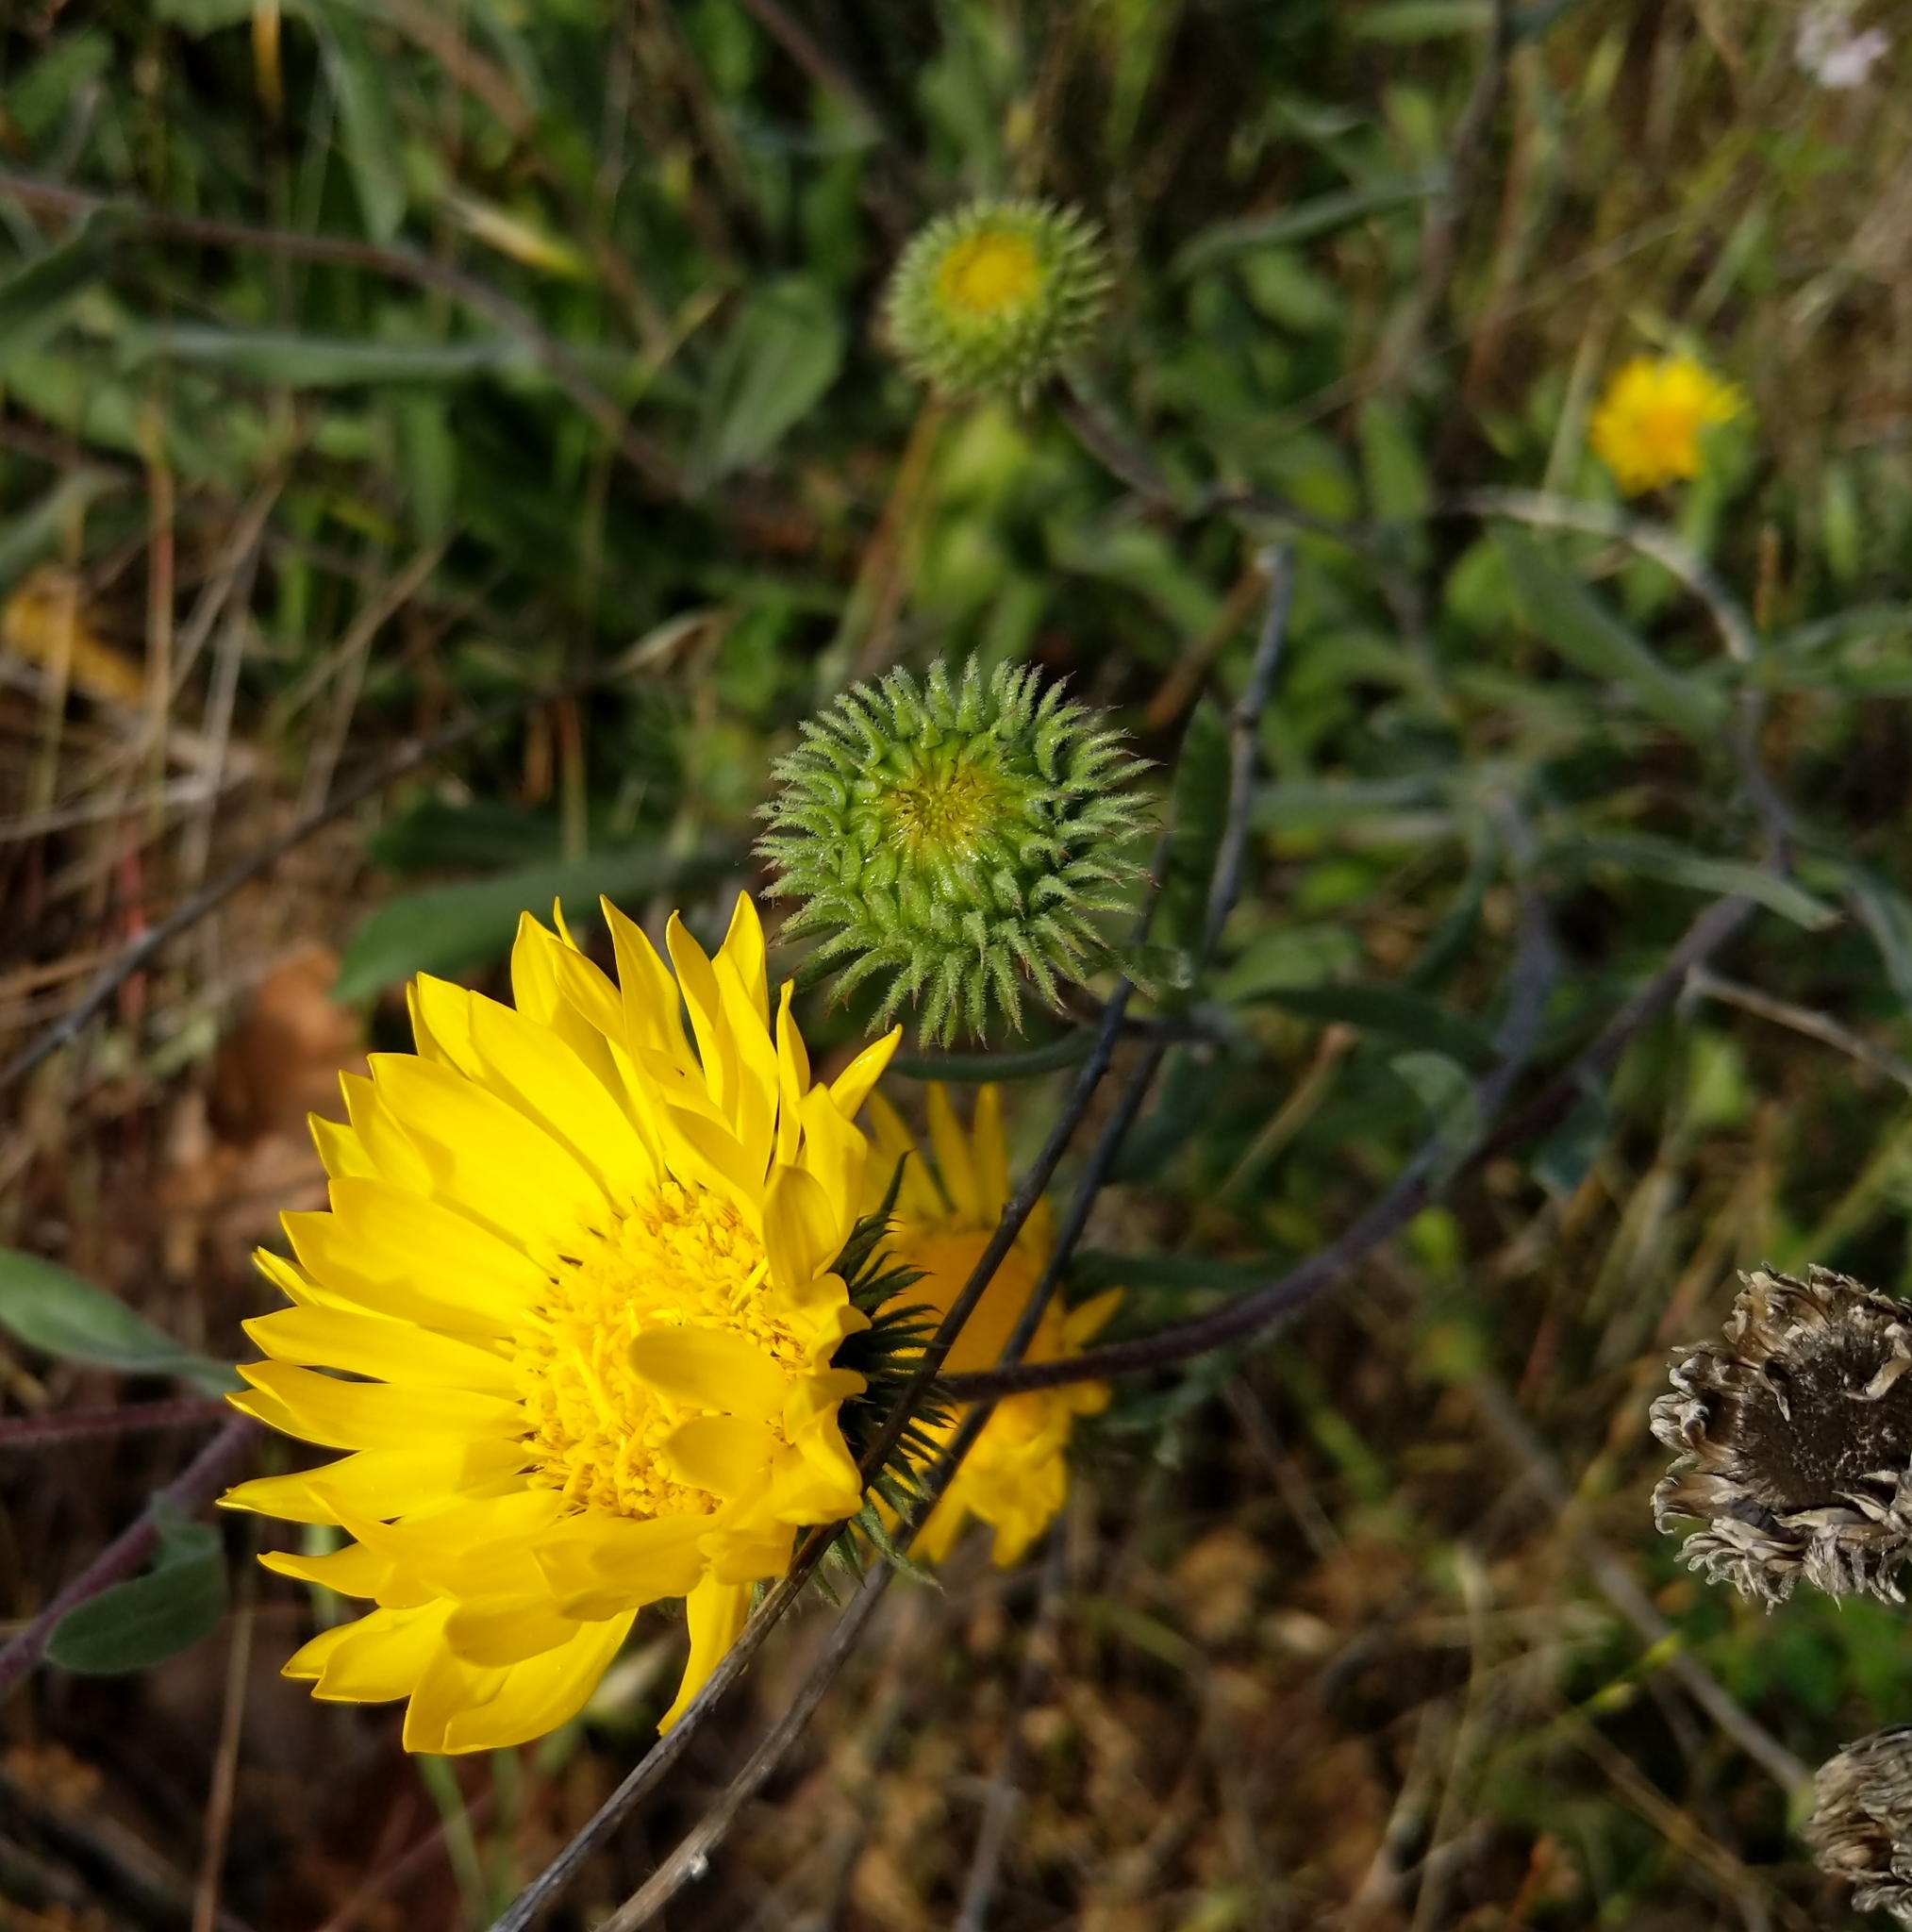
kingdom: Plantae
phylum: Tracheophyta
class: Magnoliopsida
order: Asterales
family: Asteraceae
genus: Grindelia
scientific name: Grindelia hirsutula
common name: Hairy gumweed
